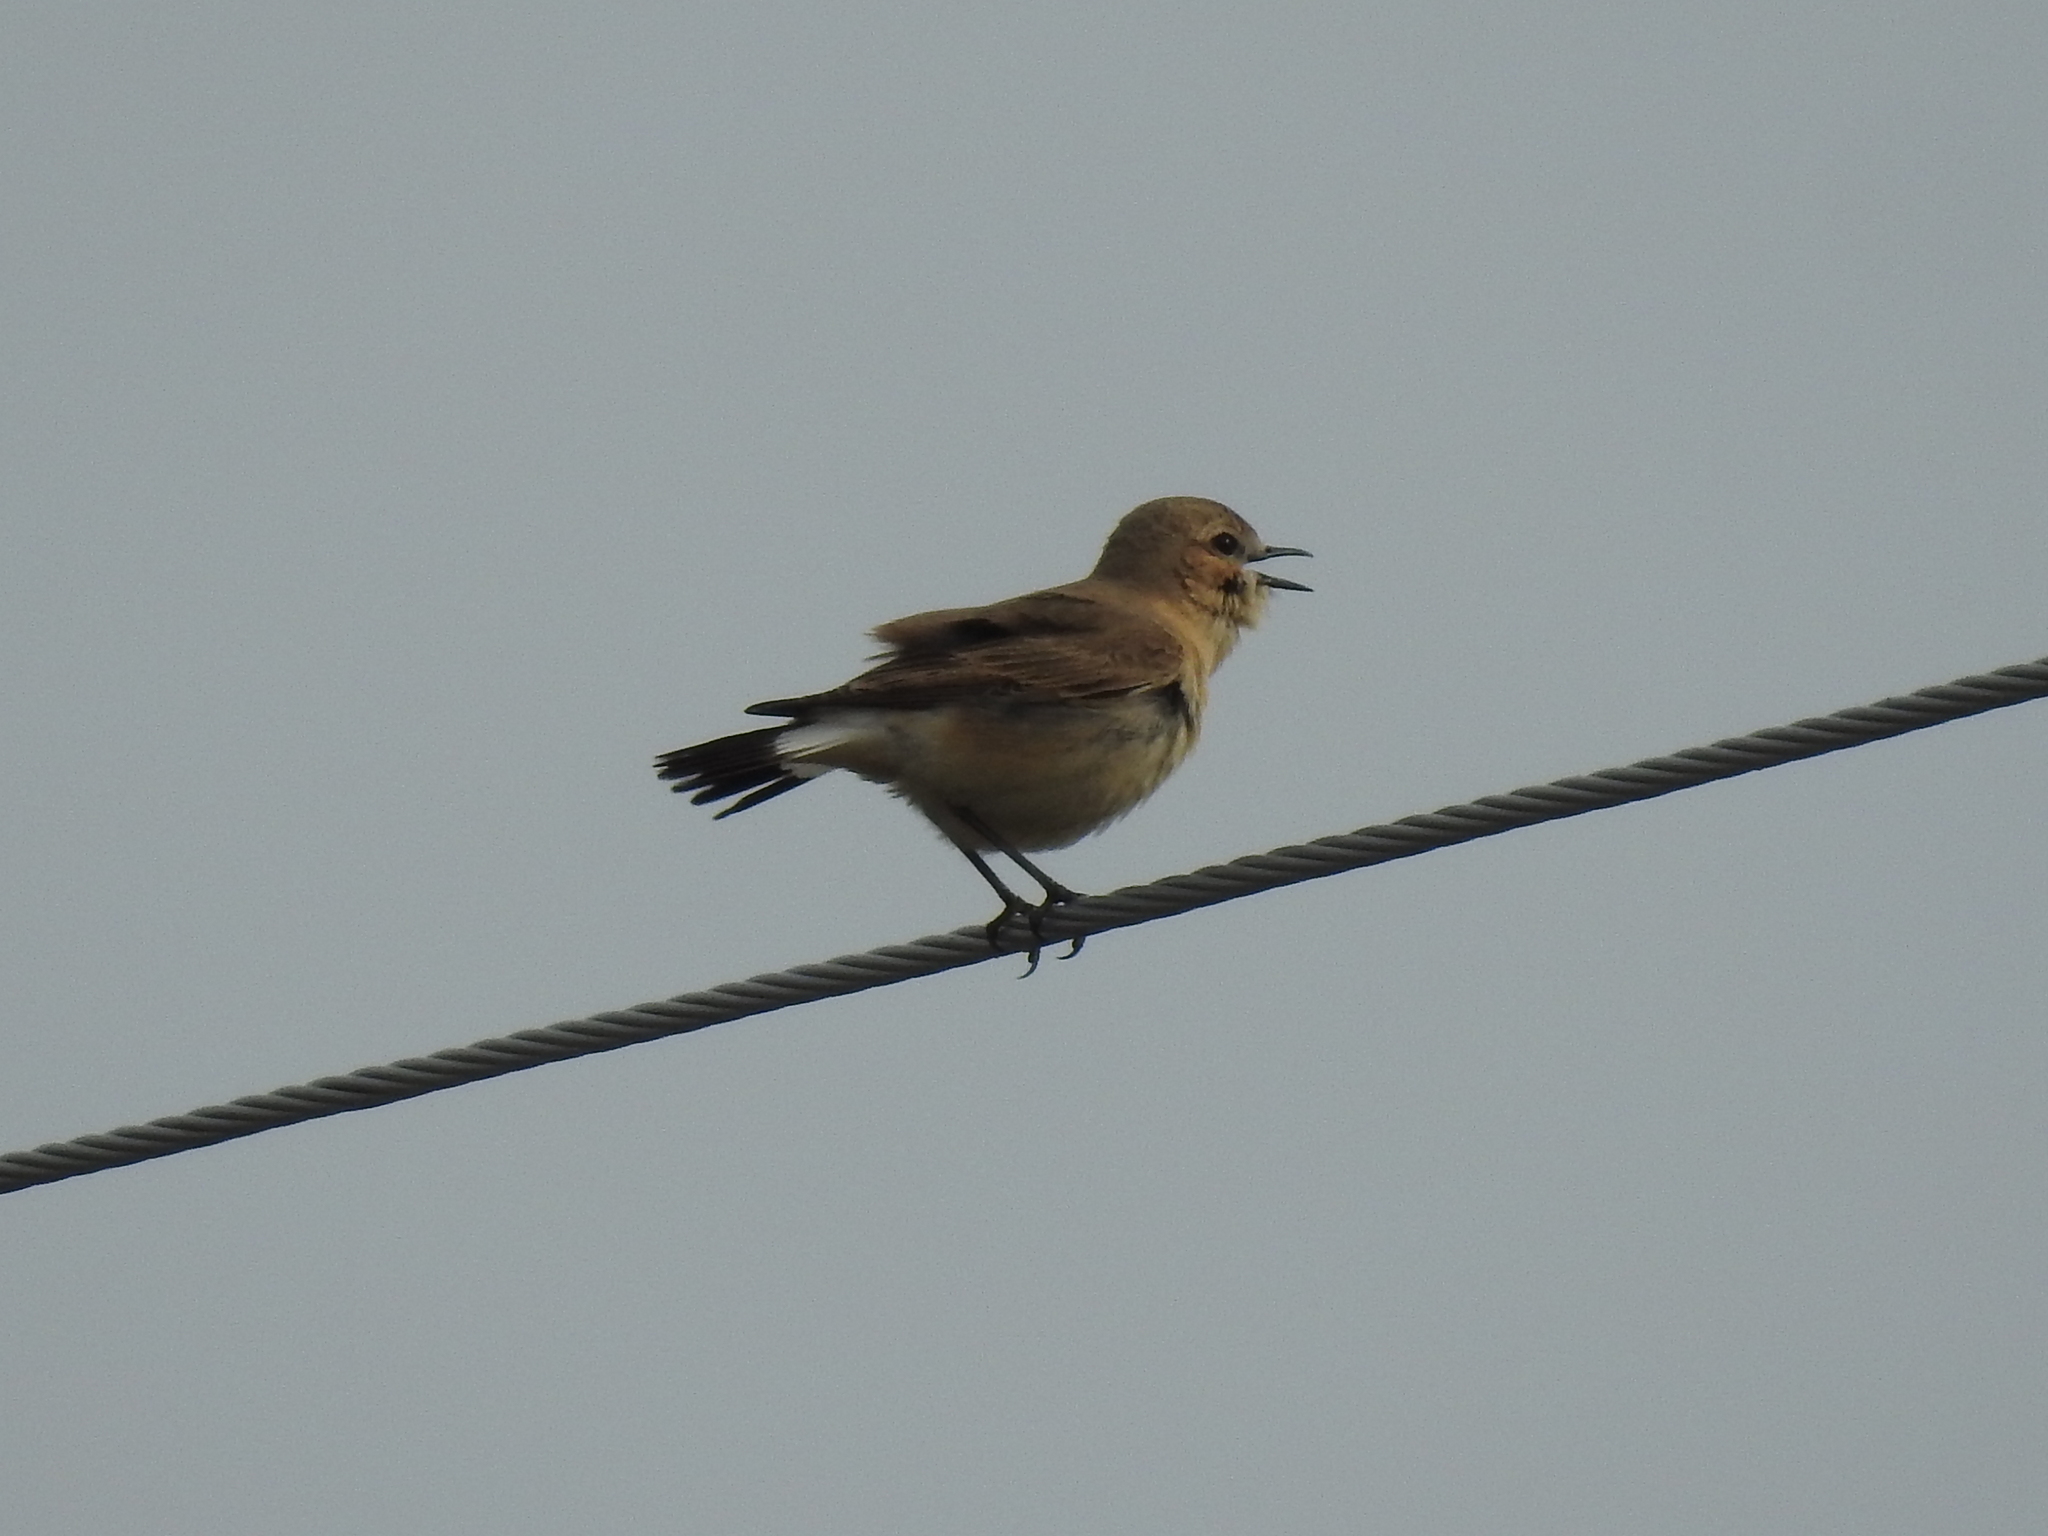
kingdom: Animalia
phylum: Chordata
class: Aves
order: Passeriformes
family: Muscicapidae
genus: Oenanthe
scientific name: Oenanthe isabellina
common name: Isabelline wheatear
